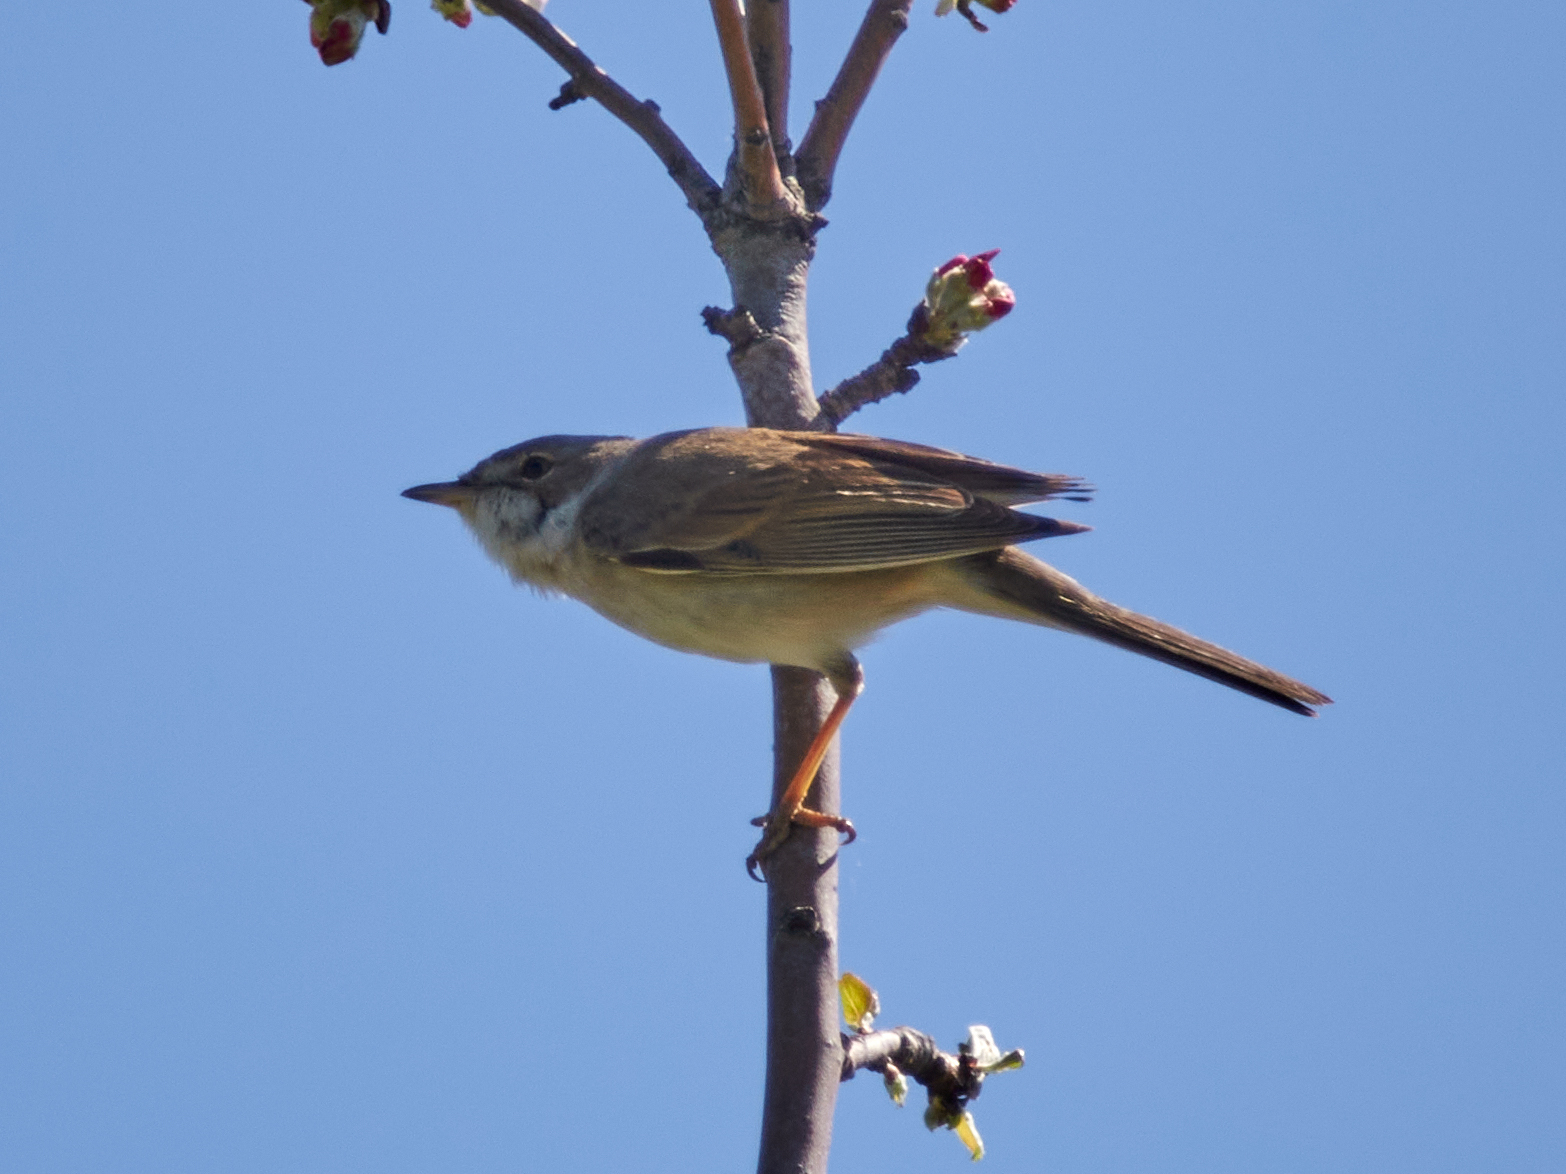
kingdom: Animalia
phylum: Chordata
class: Aves
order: Passeriformes
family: Sylviidae
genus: Sylvia
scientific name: Sylvia communis
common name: Common whitethroat
